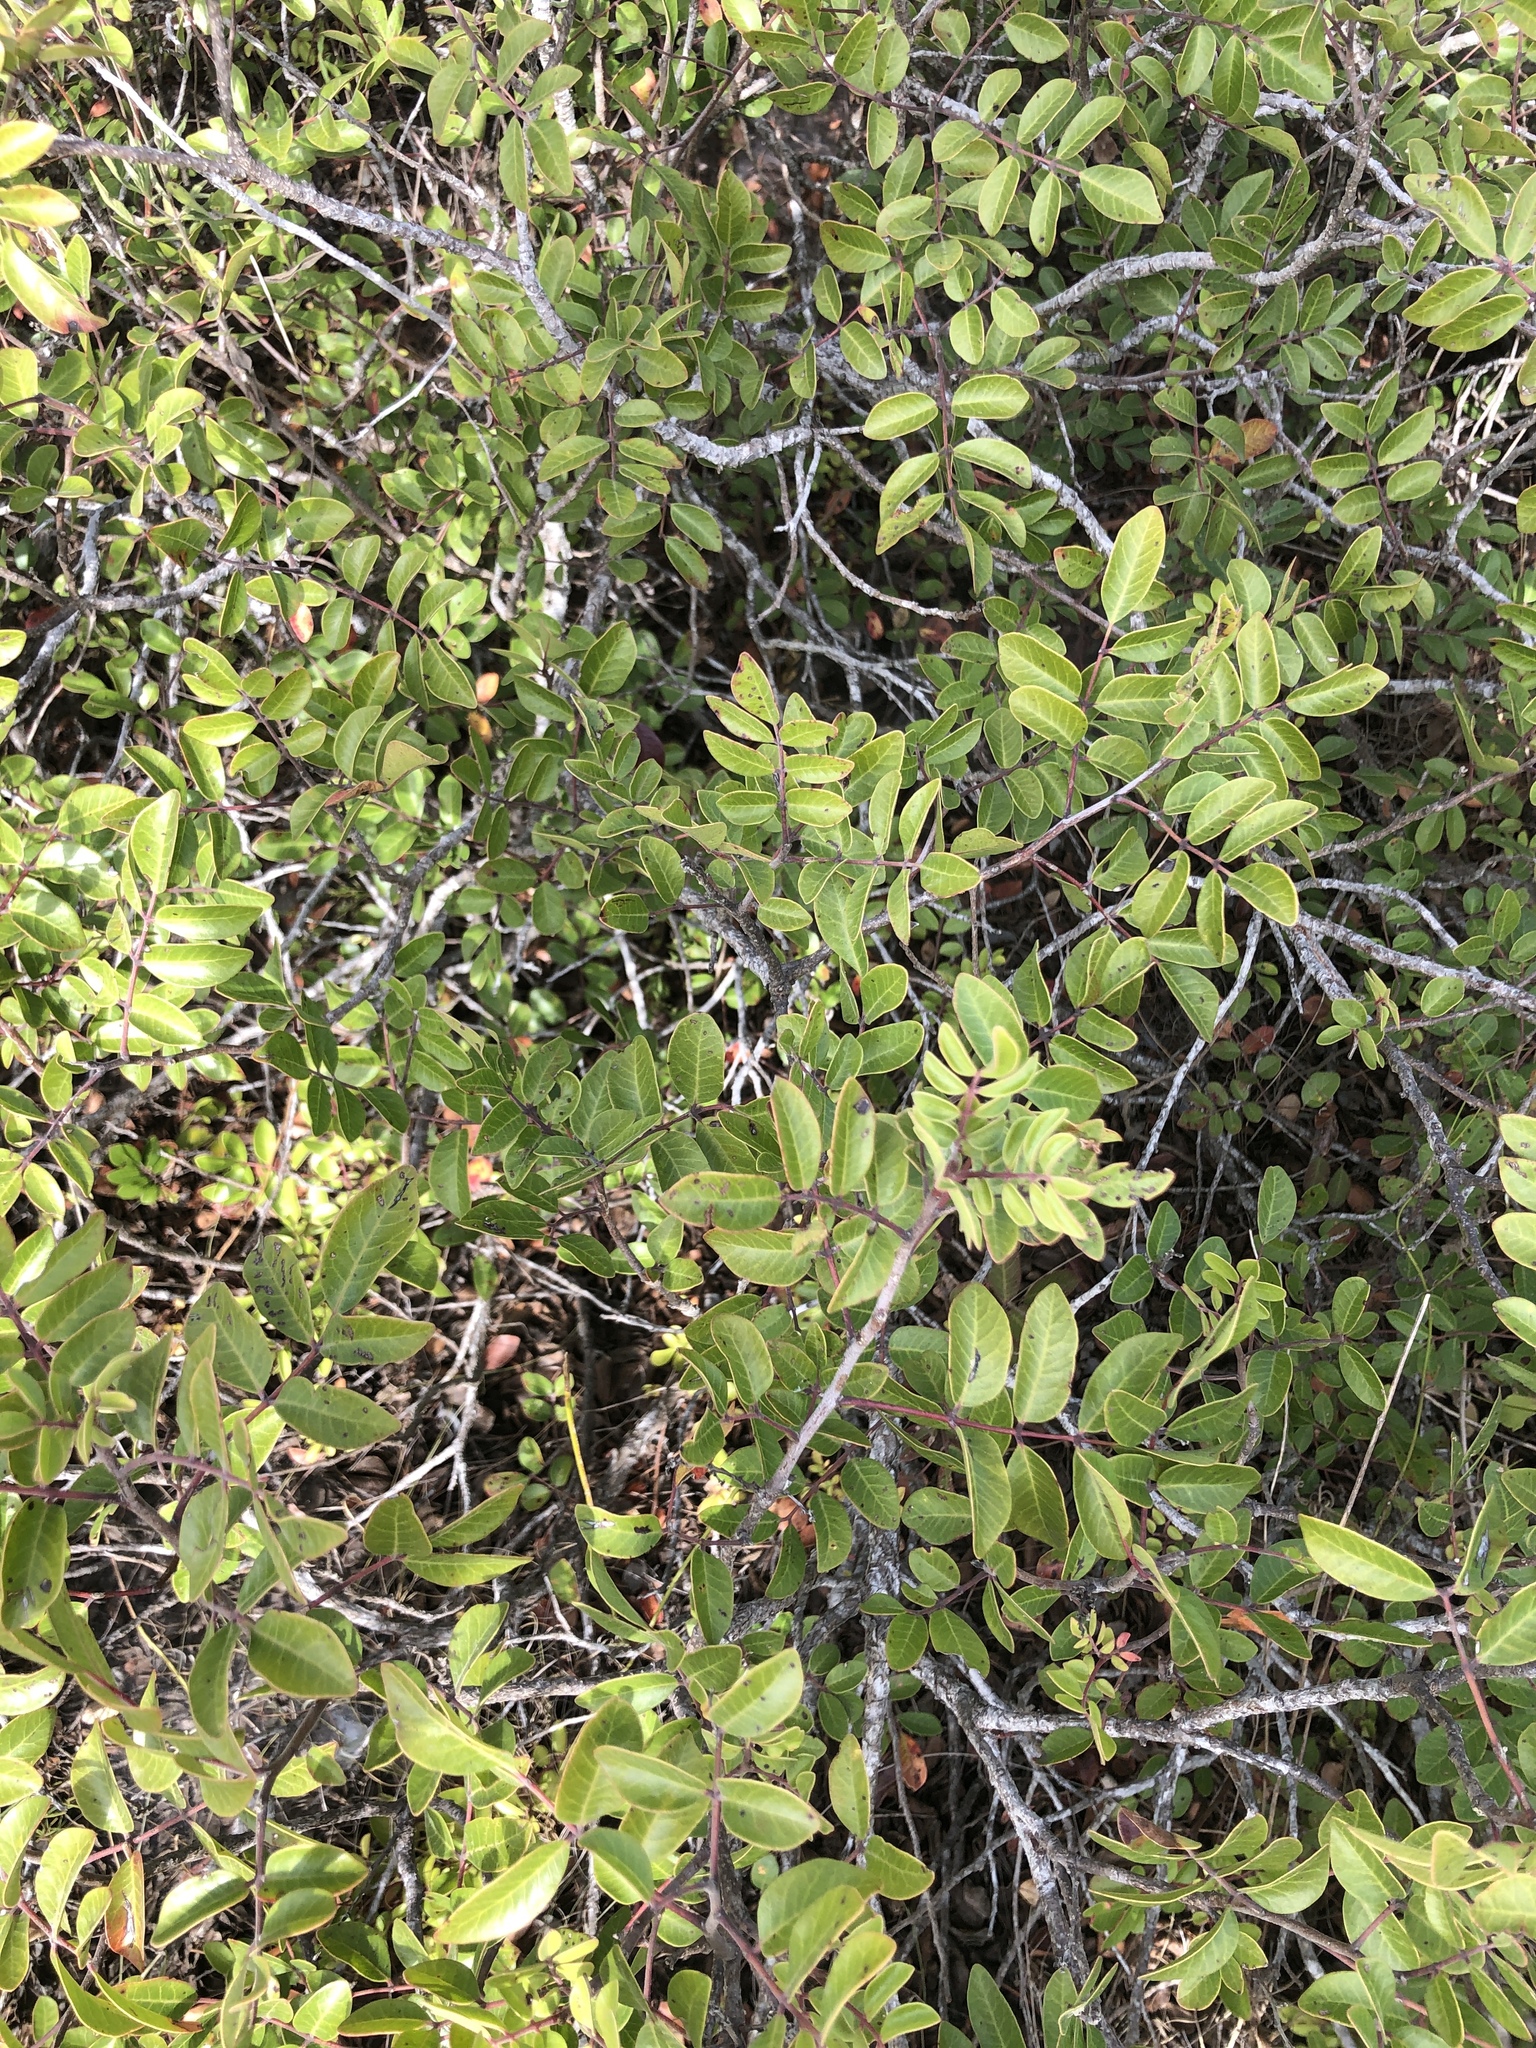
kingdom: Plantae
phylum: Tracheophyta
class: Magnoliopsida
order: Sapindales
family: Anacardiaceae
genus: Rhus
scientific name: Rhus virens
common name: Evergreen sumac
